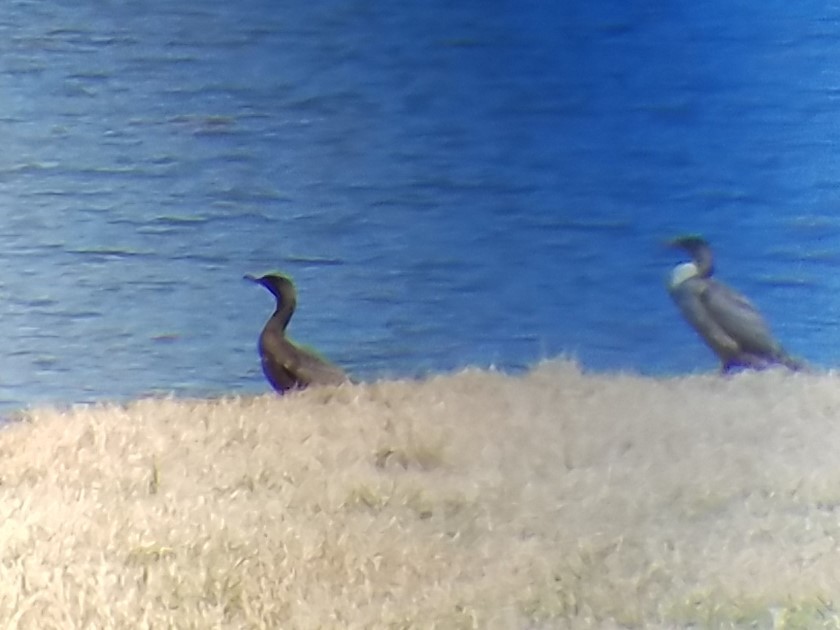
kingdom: Animalia
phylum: Chordata
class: Aves
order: Suliformes
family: Phalacrocoracidae
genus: Phalacrocorax
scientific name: Phalacrocorax auritus
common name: Double-crested cormorant
